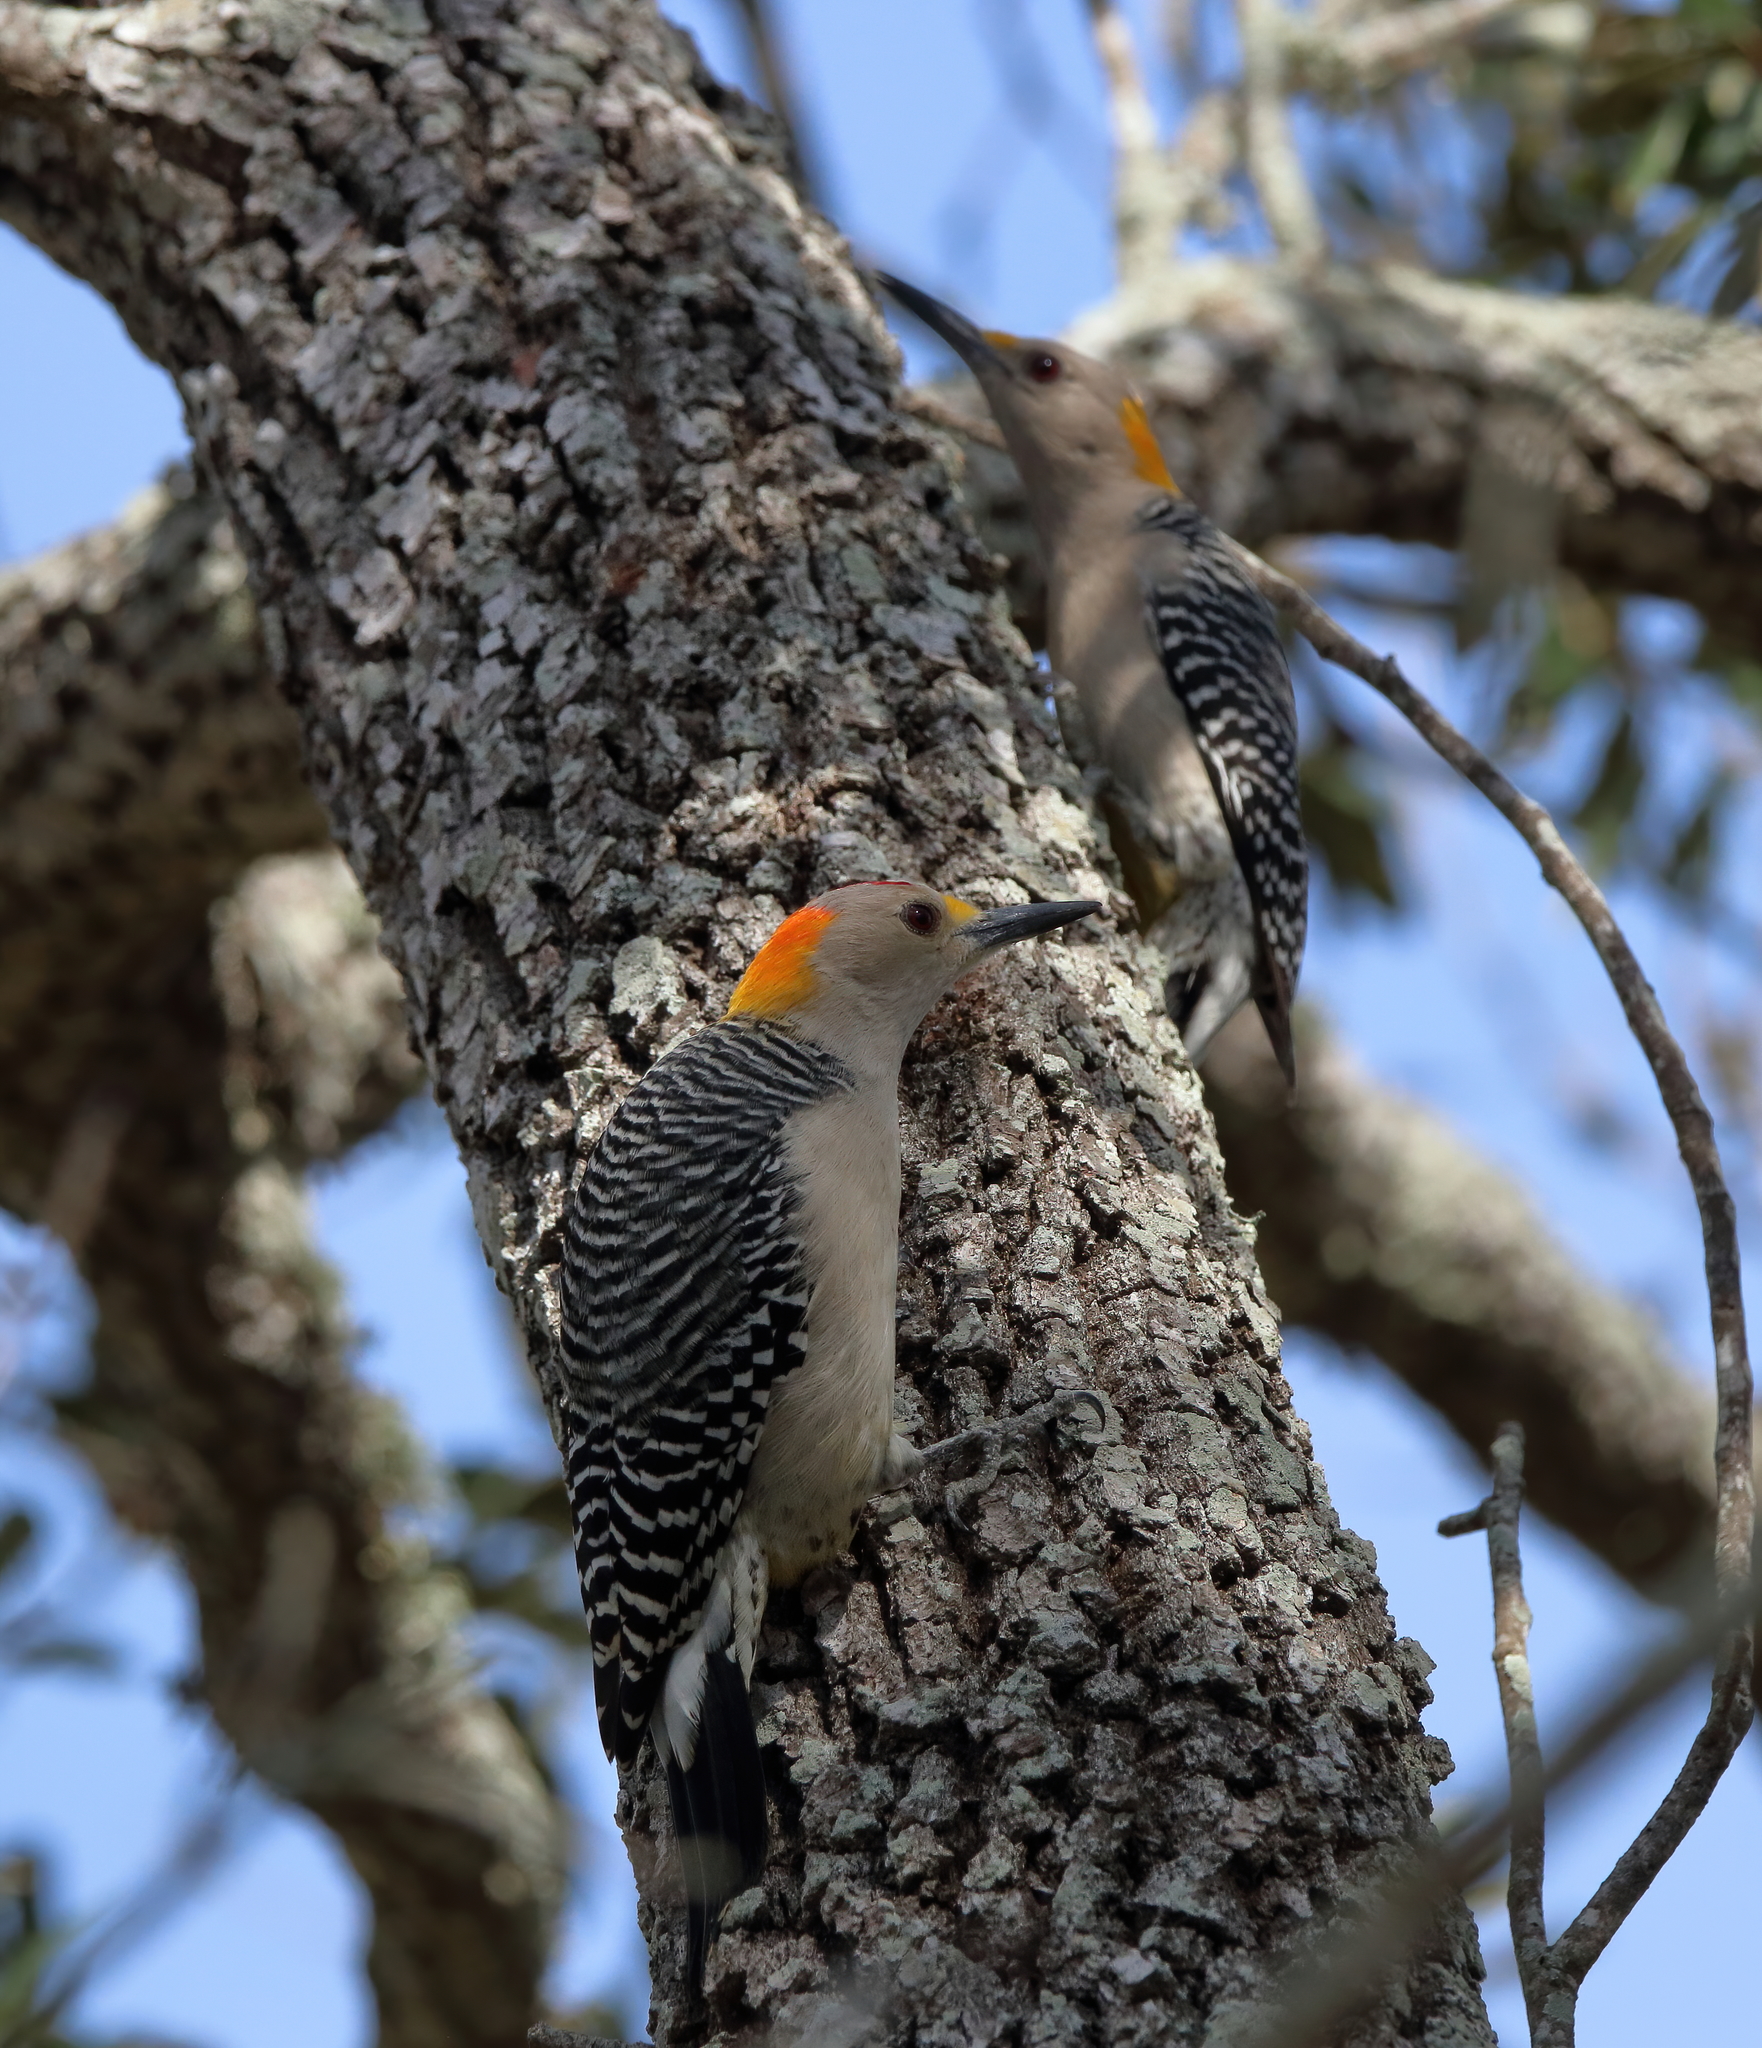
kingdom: Animalia
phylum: Chordata
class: Aves
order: Piciformes
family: Picidae
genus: Melanerpes
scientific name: Melanerpes aurifrons
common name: Golden-fronted woodpecker
